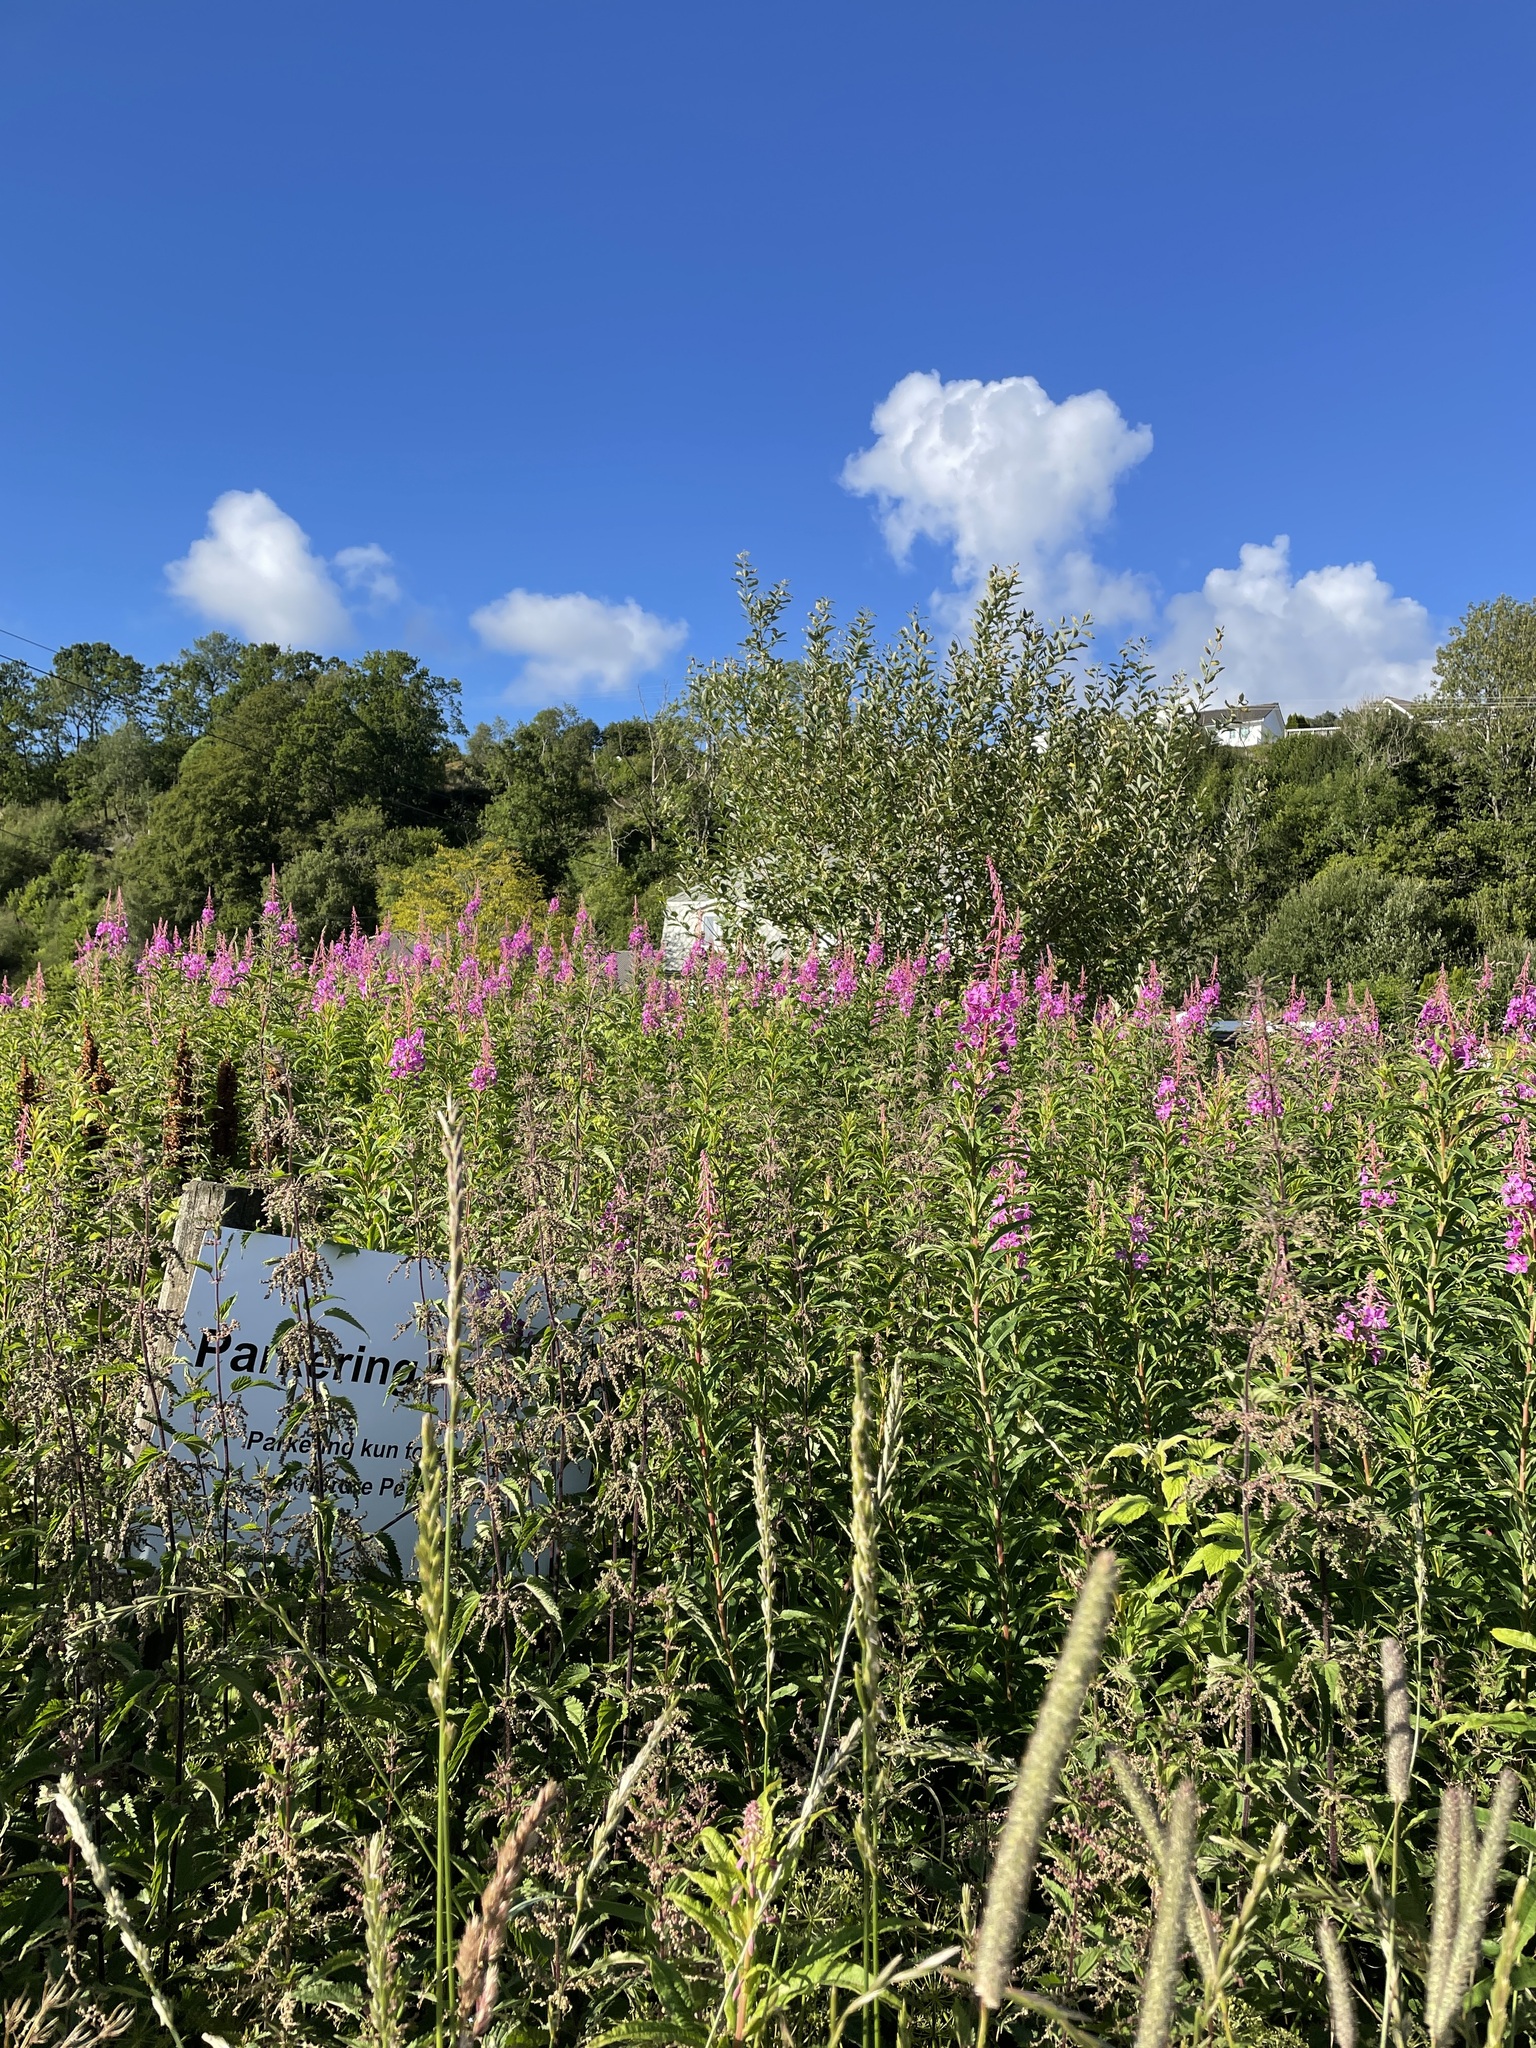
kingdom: Plantae
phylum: Tracheophyta
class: Magnoliopsida
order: Myrtales
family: Onagraceae
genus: Chamaenerion
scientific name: Chamaenerion angustifolium
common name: Fireweed
